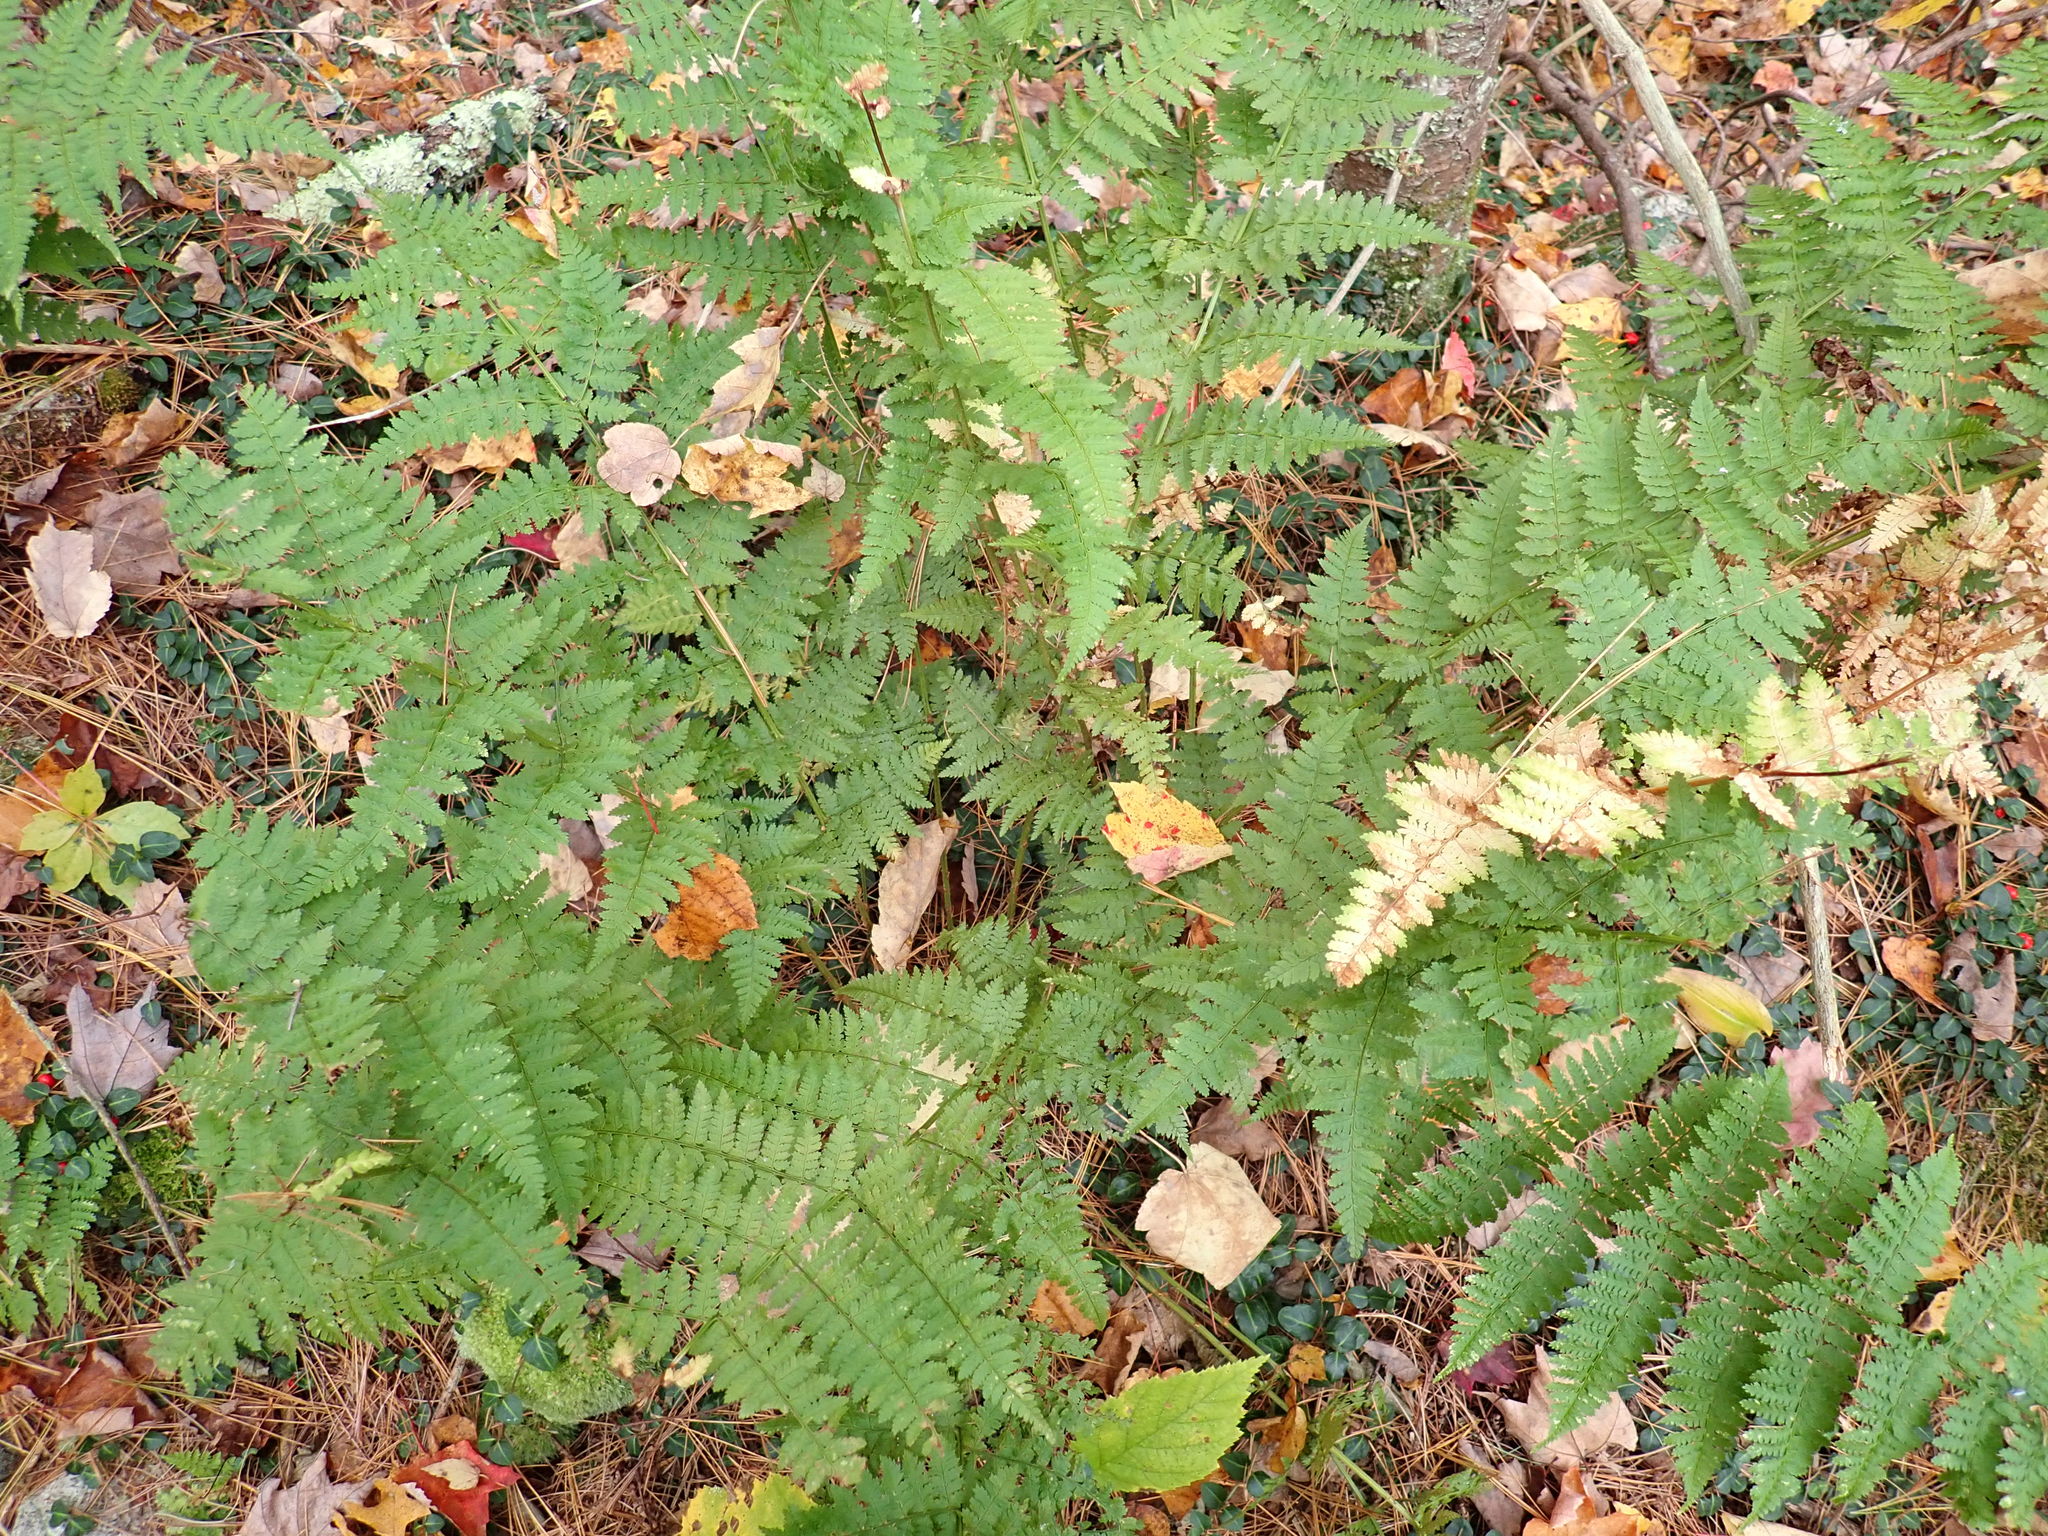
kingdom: Plantae
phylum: Tracheophyta
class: Polypodiopsida
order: Polypodiales
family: Dryopteridaceae
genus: Dryopteris
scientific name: Dryopteris intermedia
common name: Evergreen wood fern
